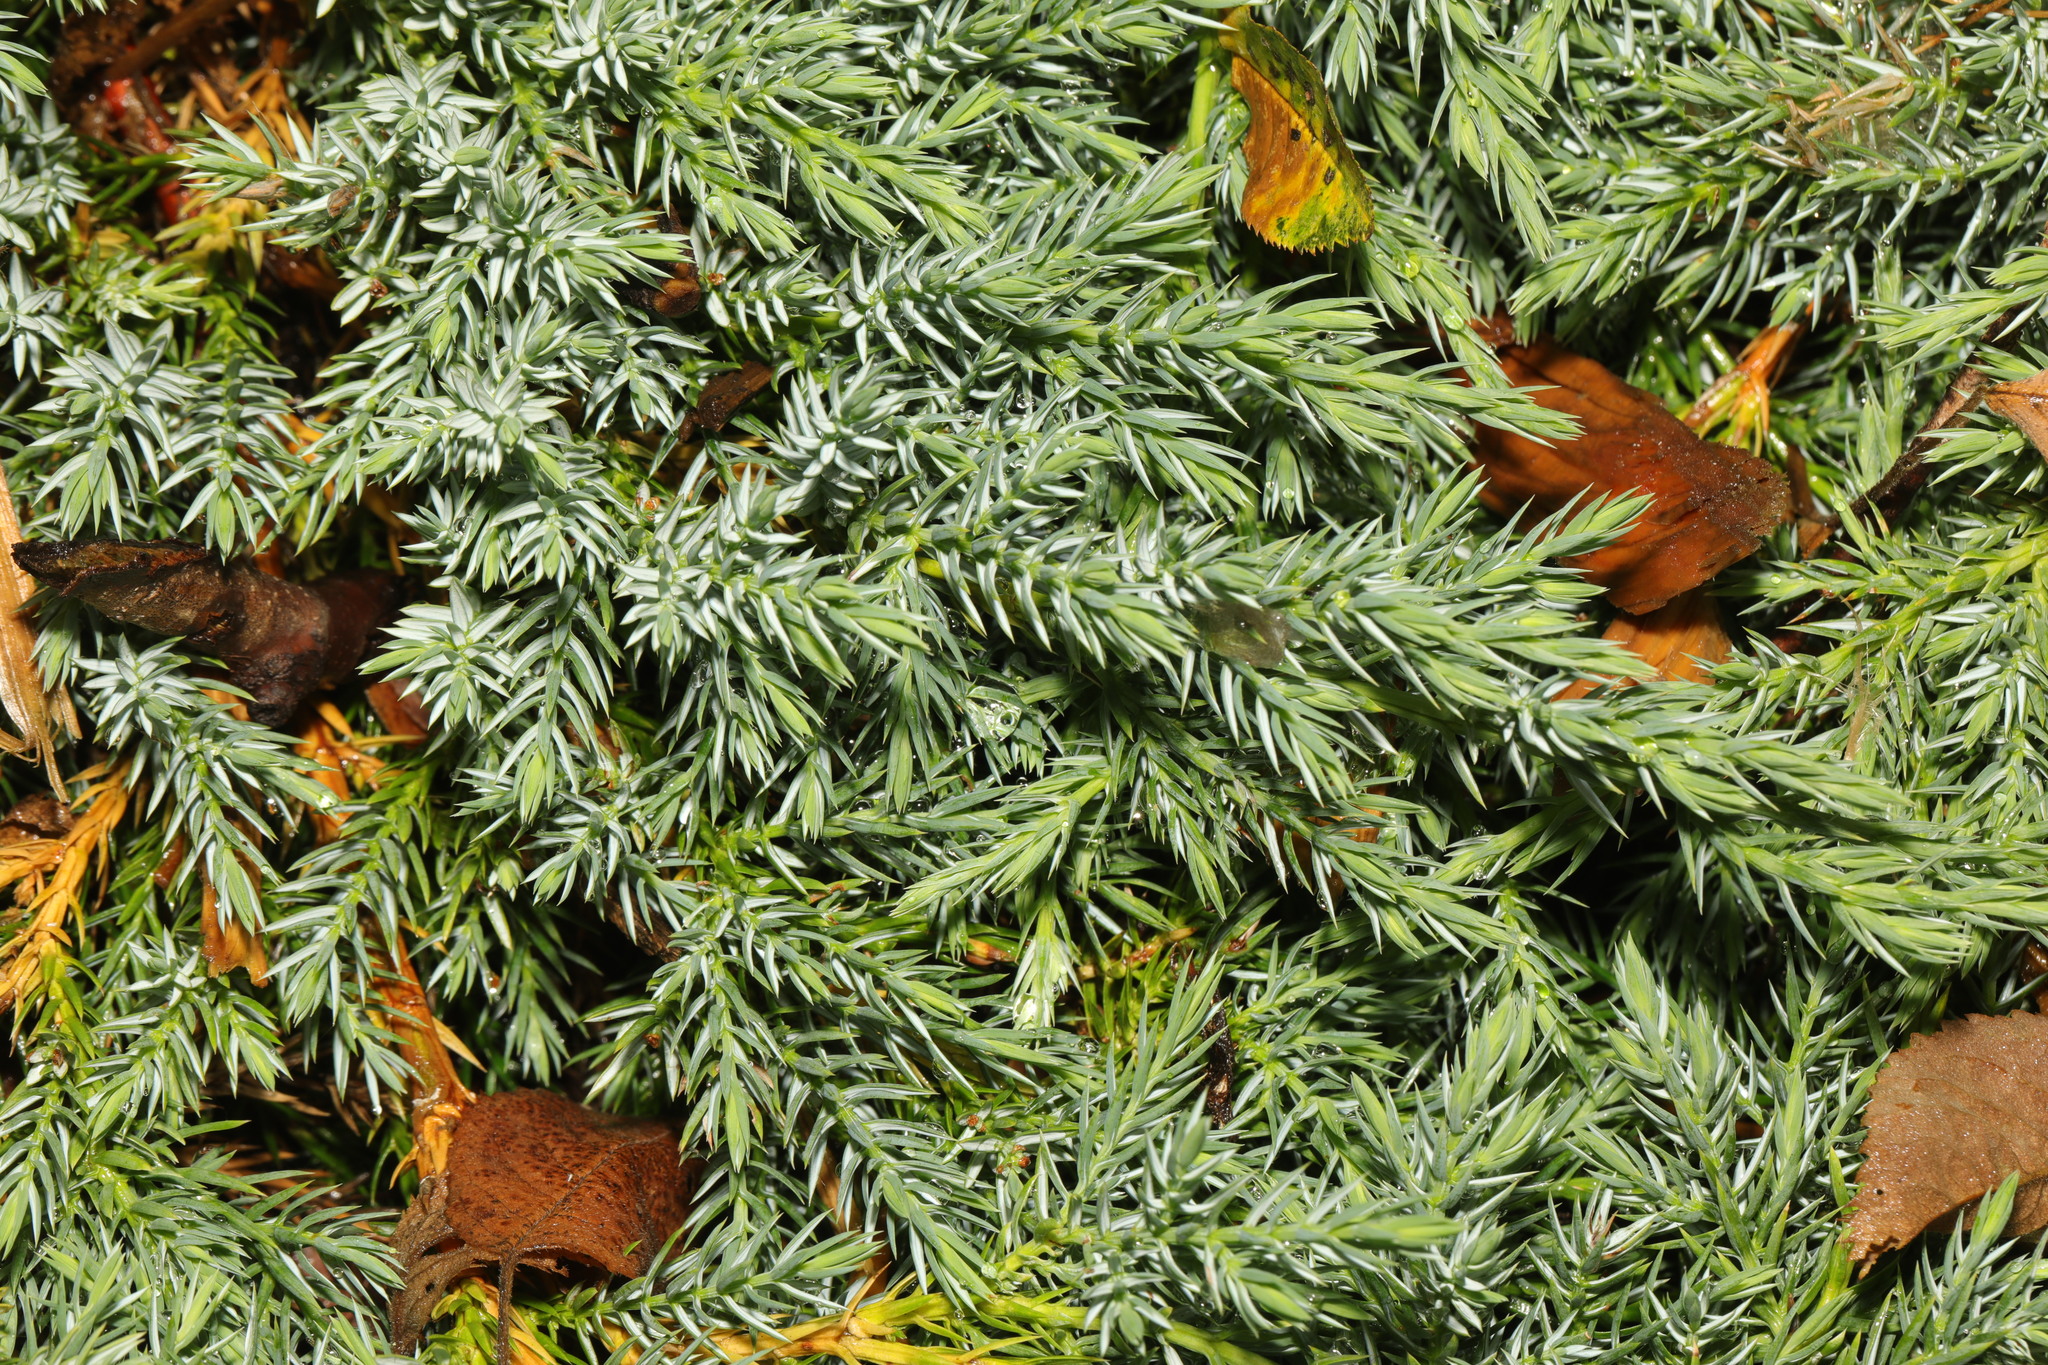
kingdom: Plantae
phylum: Tracheophyta
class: Pinopsida
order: Pinales
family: Cupressaceae
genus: Juniperus
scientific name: Juniperus communis
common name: Common juniper
